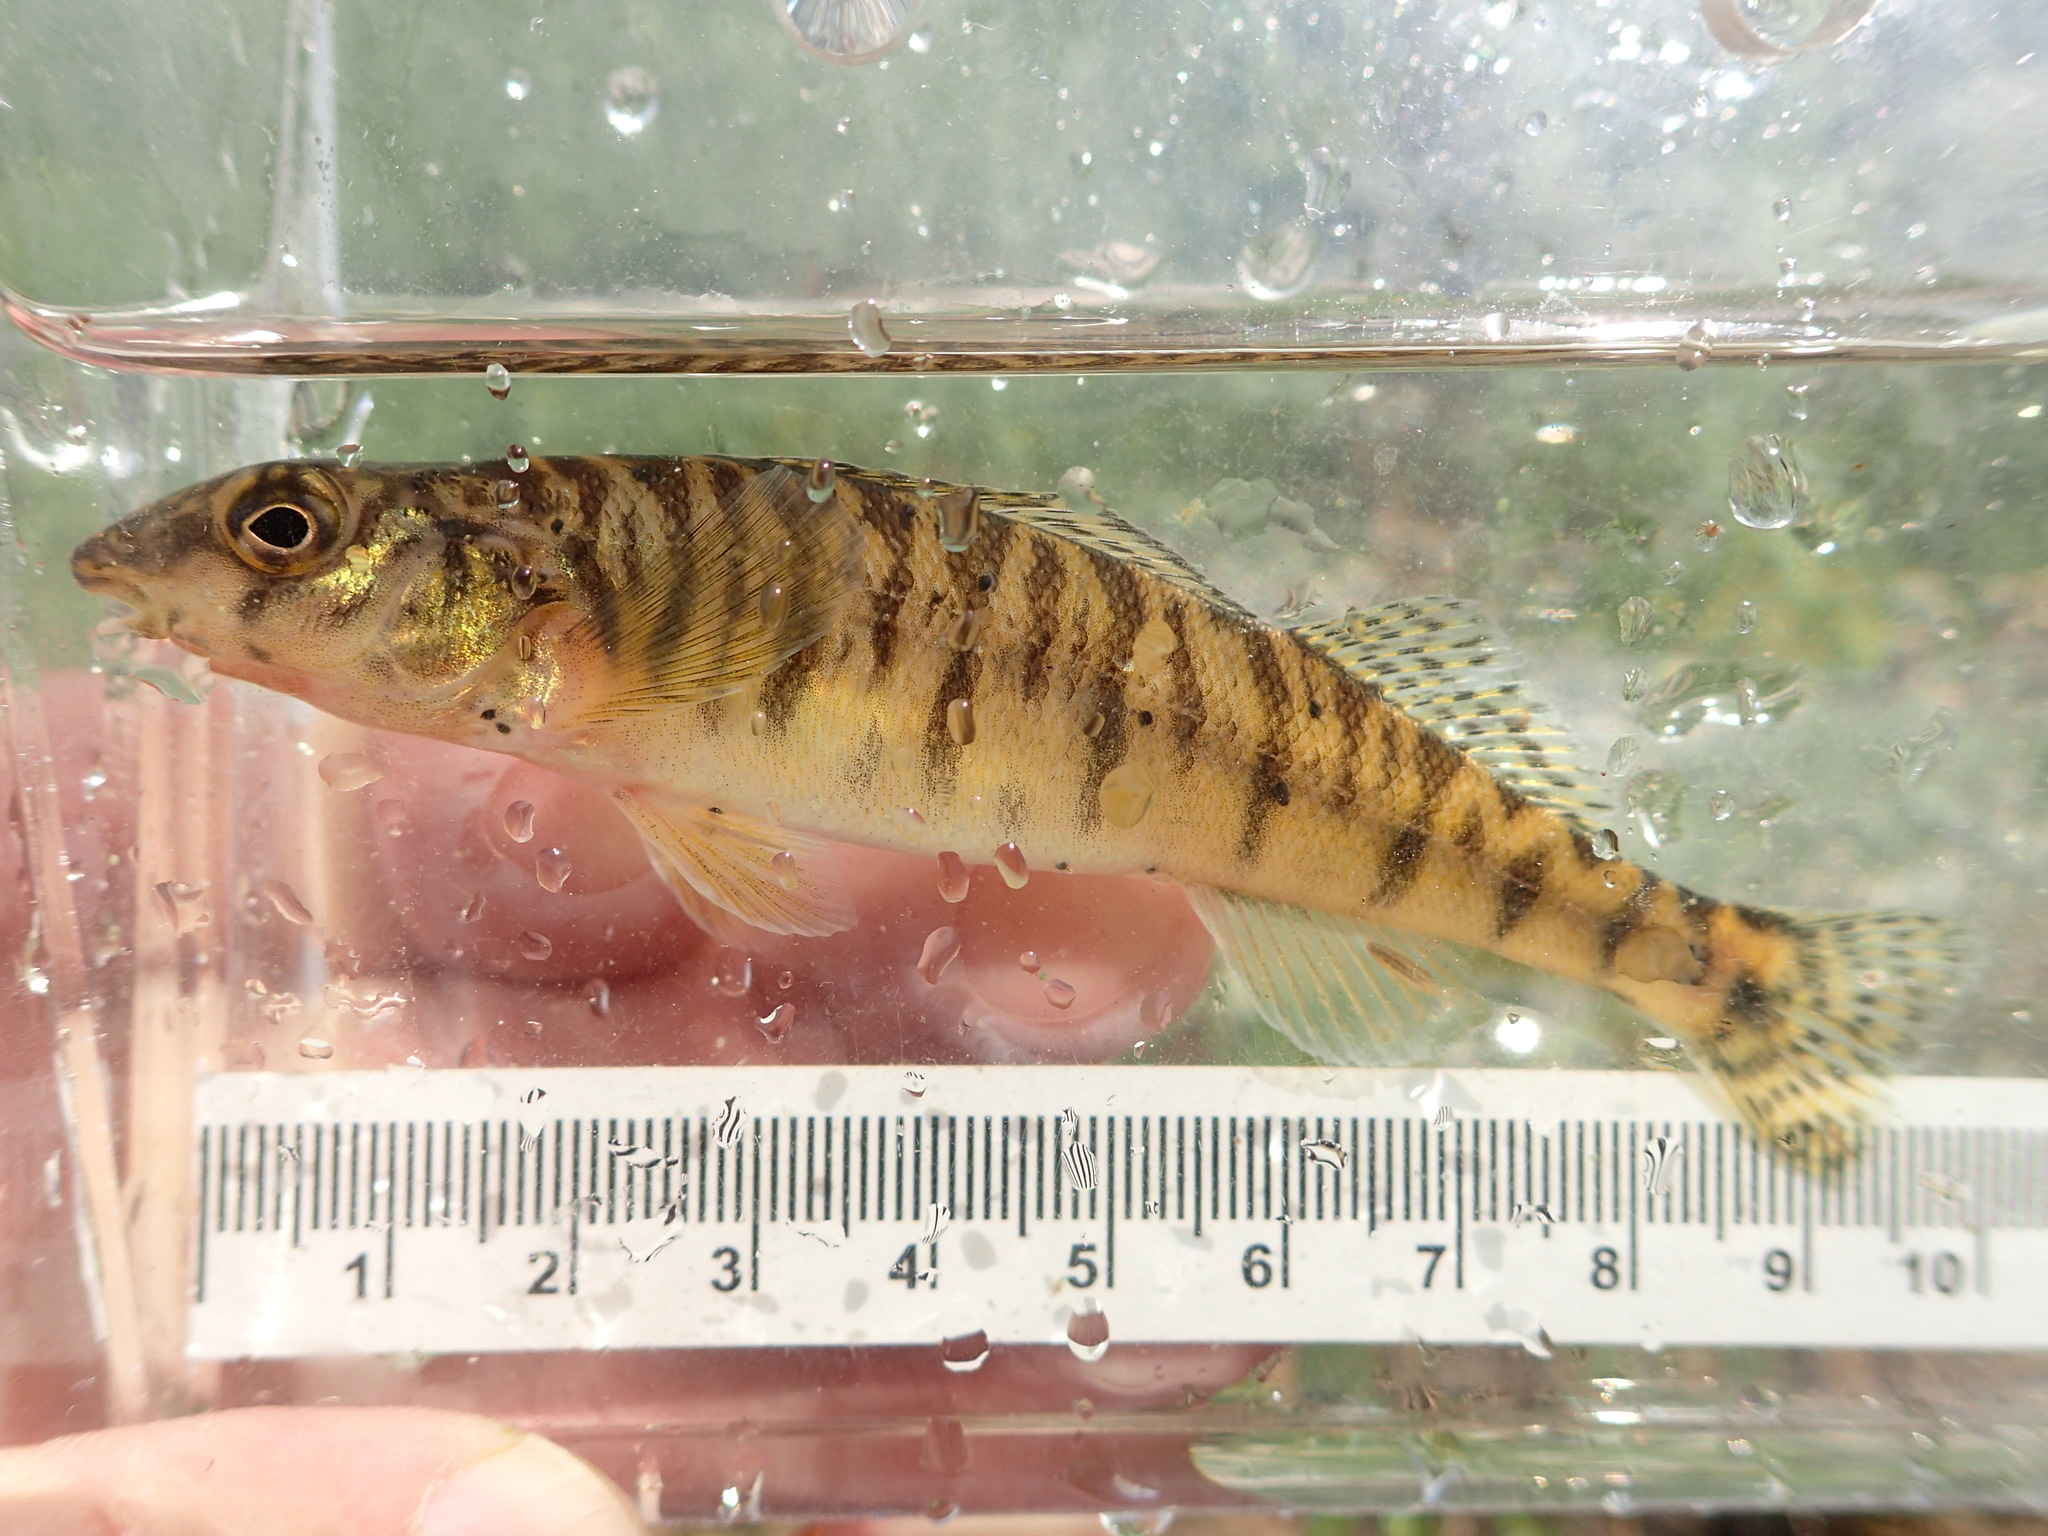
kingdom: Animalia
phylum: Chordata
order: Perciformes
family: Percidae
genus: Percina
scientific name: Percina caprodes
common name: Logperch
